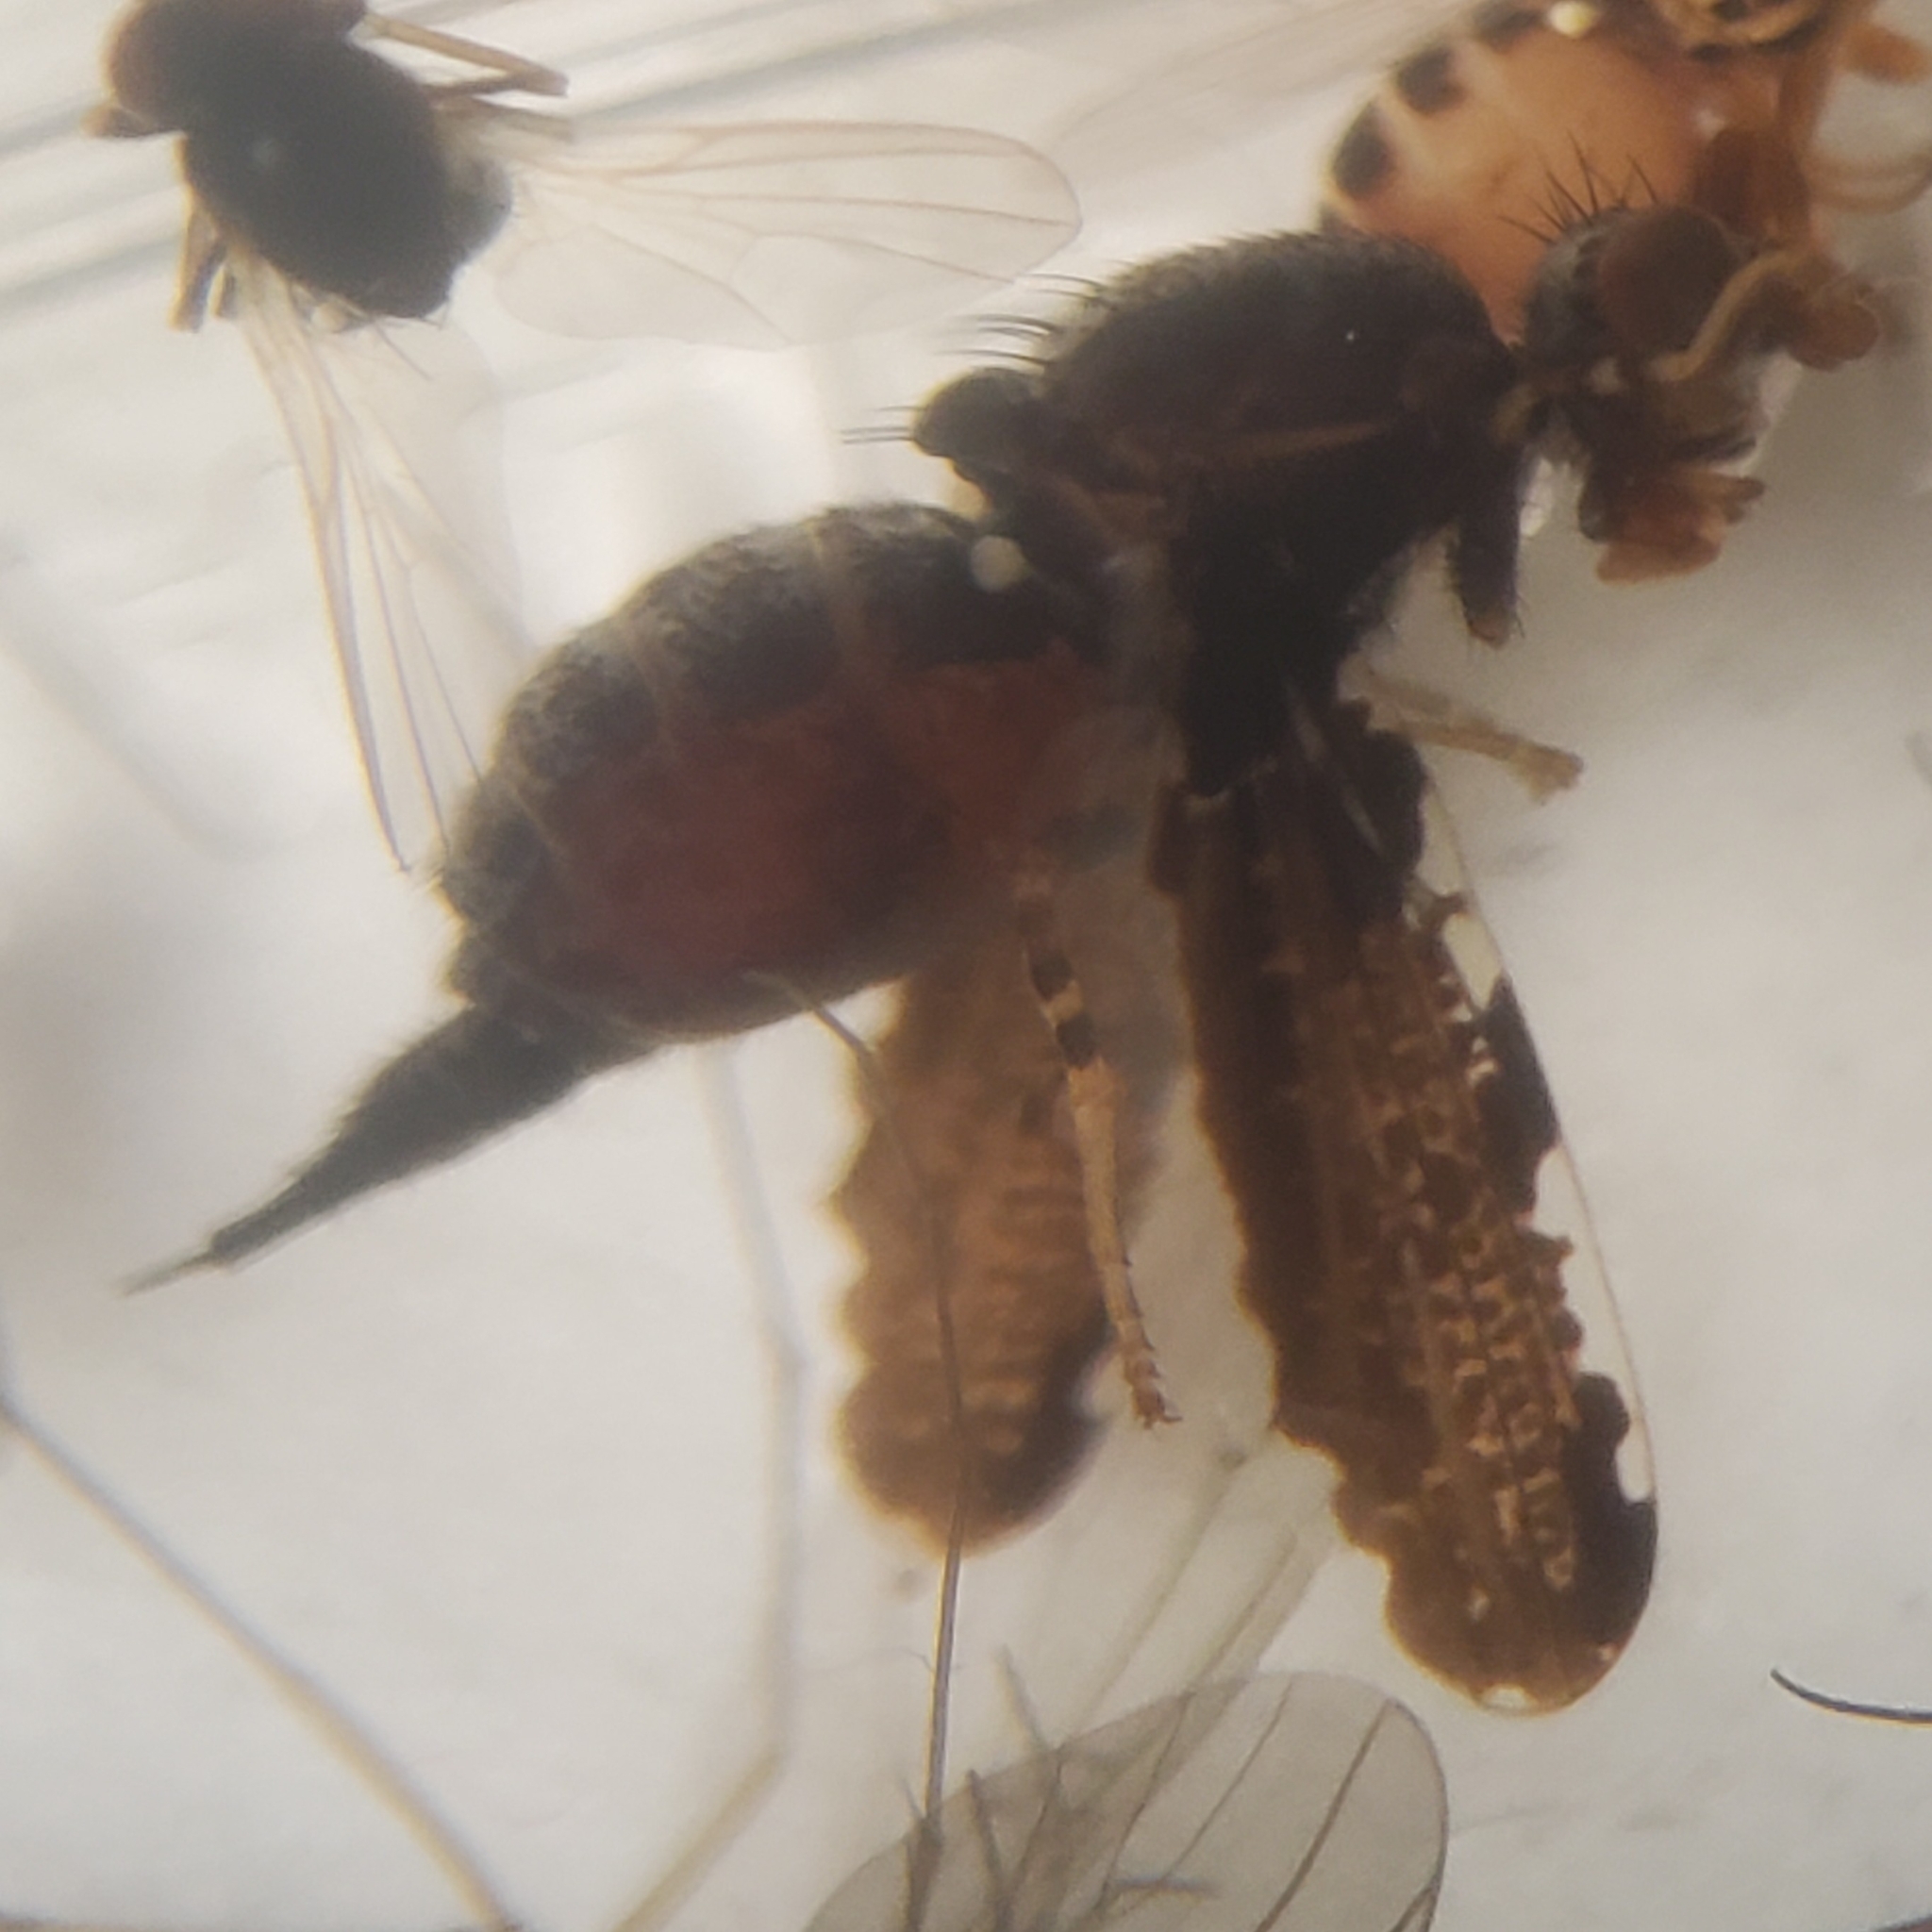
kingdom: Animalia
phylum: Arthropoda
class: Insecta
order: Diptera
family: Ulidiidae
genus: Callopistromyia
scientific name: Callopistromyia strigula
